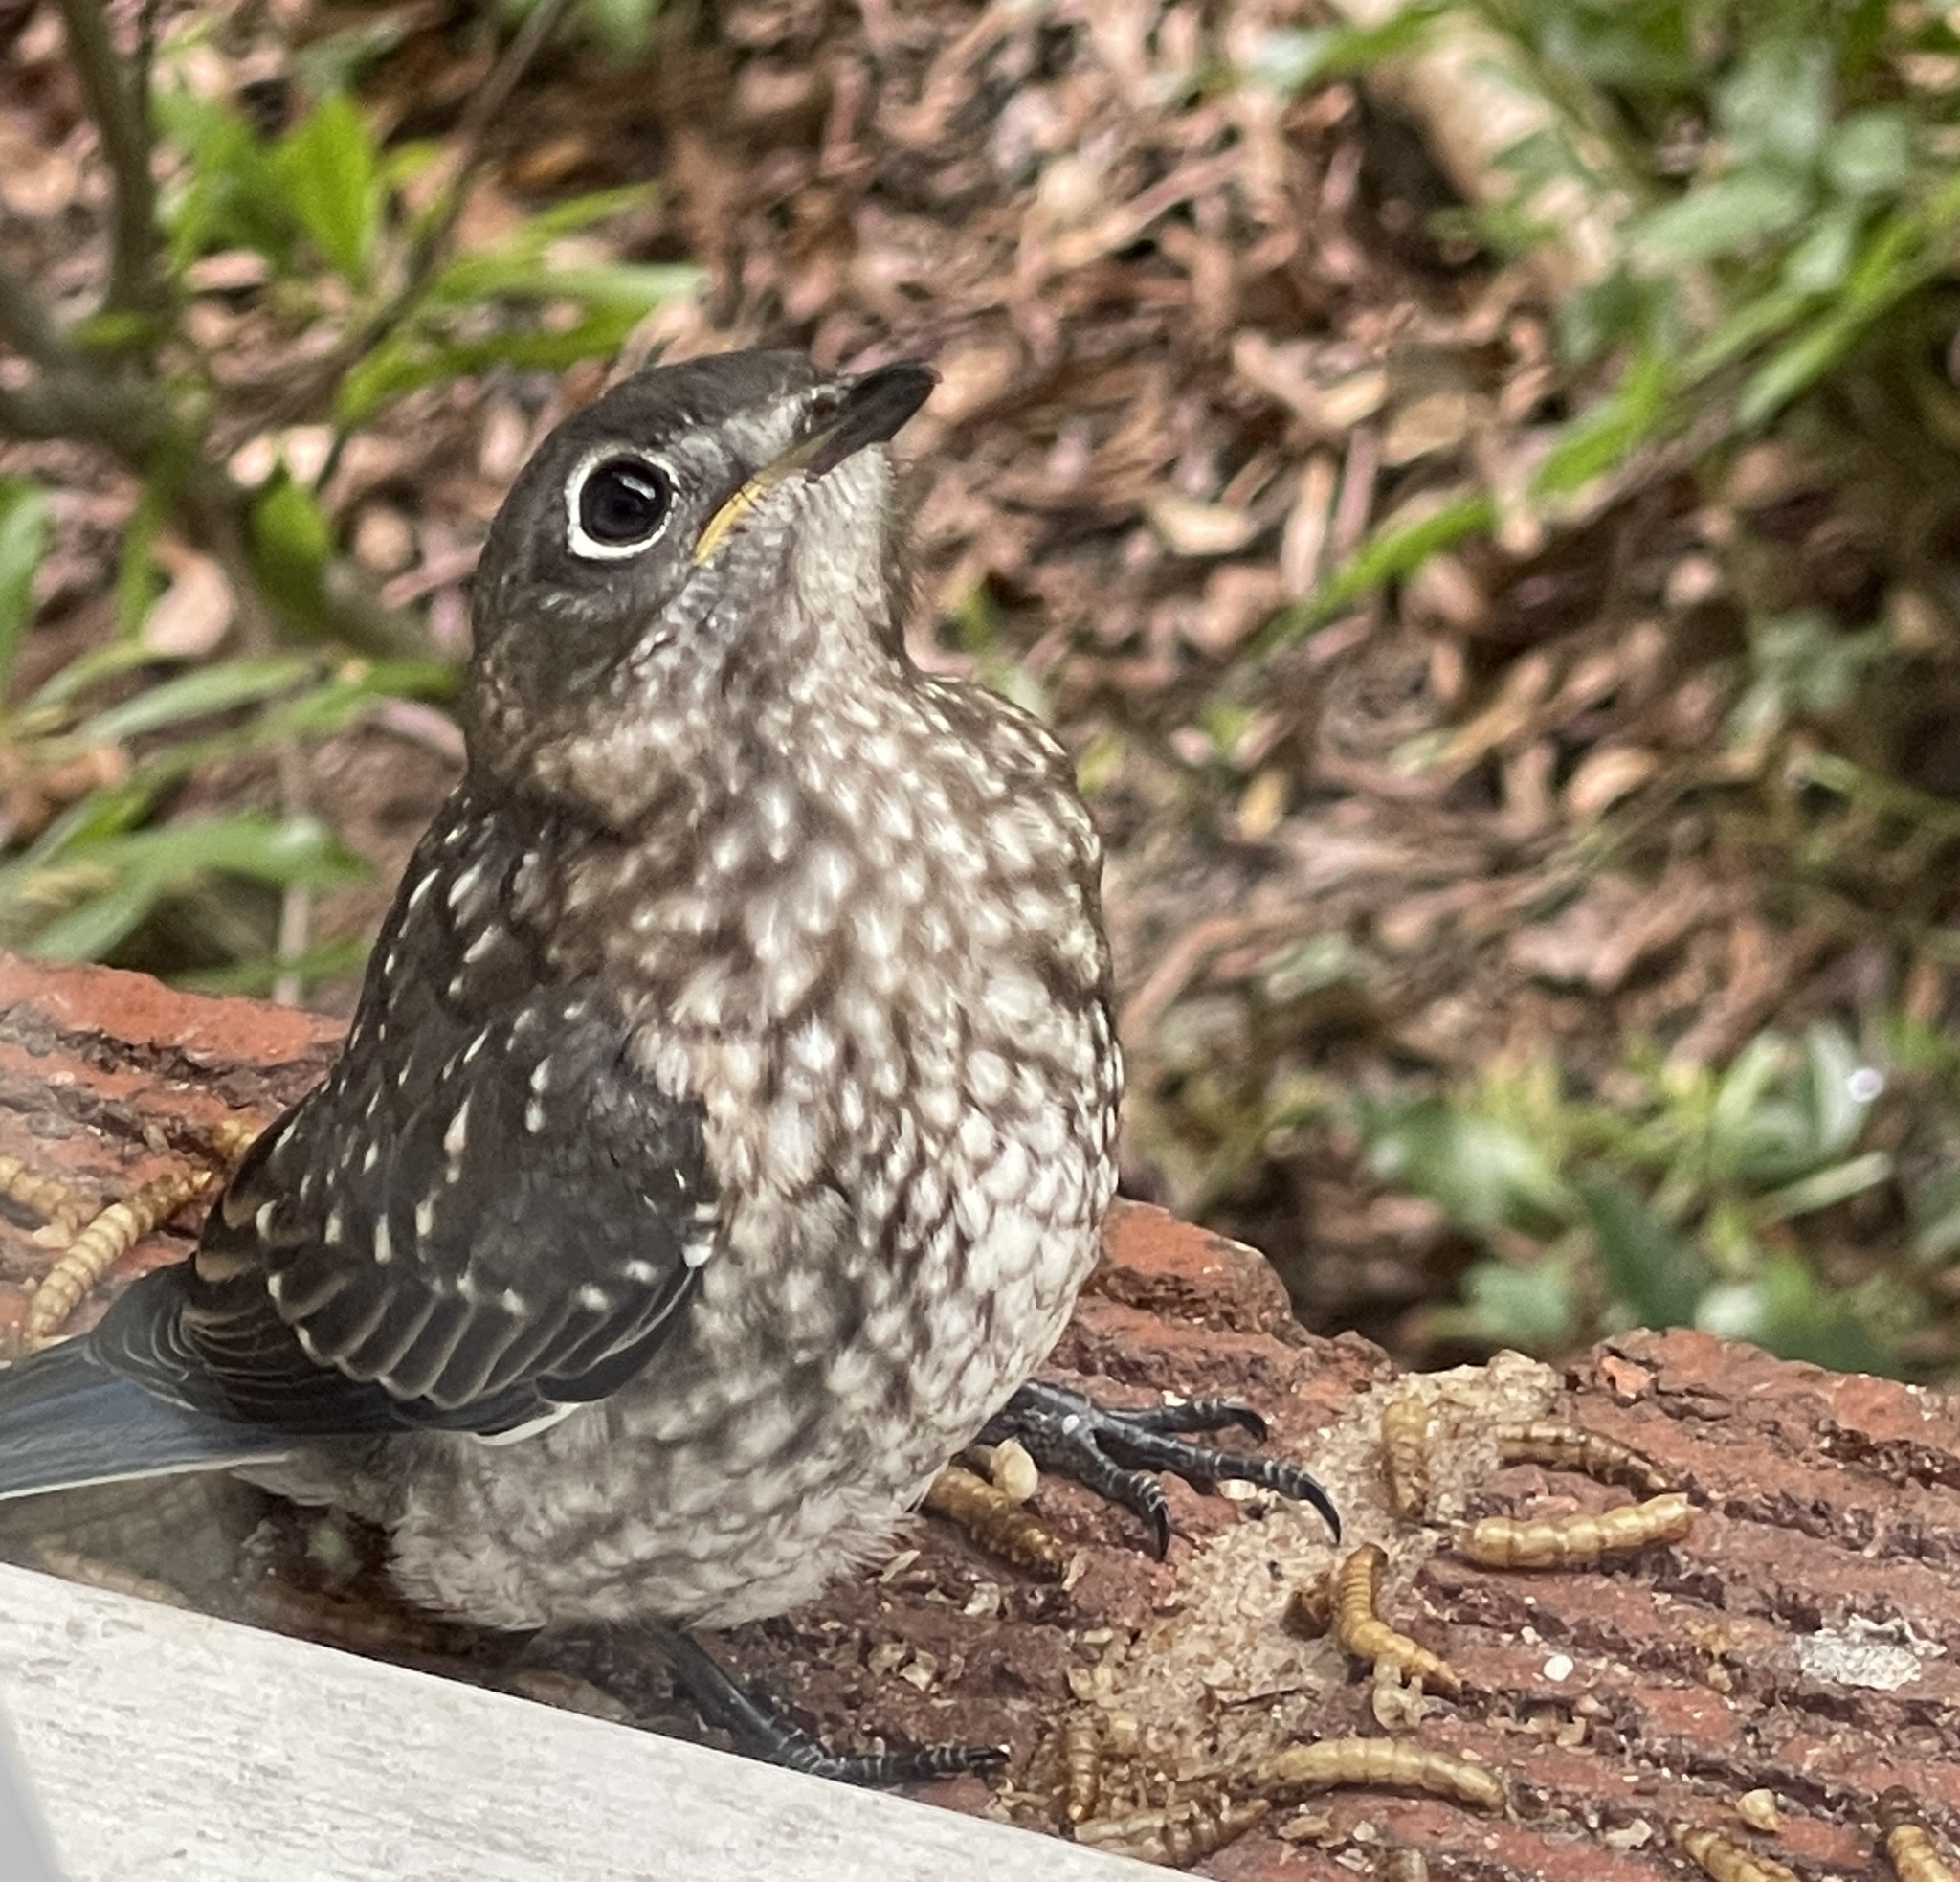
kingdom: Animalia
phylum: Chordata
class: Aves
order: Passeriformes
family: Turdidae
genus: Sialia
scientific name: Sialia sialis
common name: Eastern bluebird
